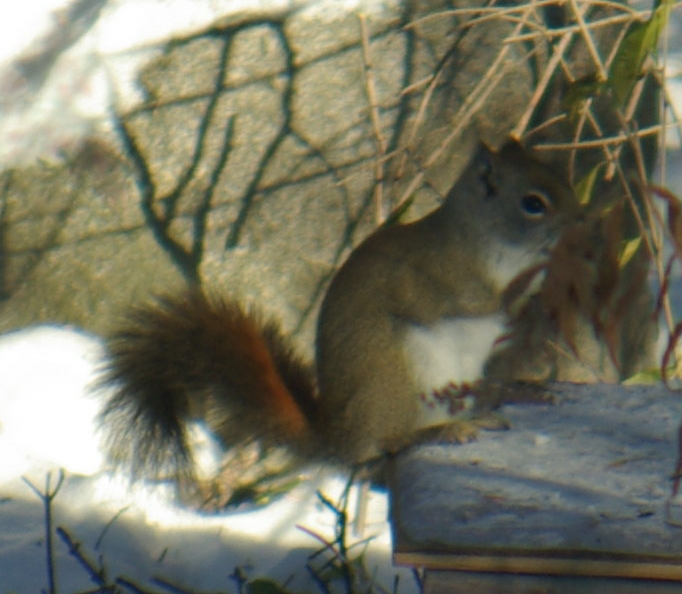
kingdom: Animalia
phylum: Chordata
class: Mammalia
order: Rodentia
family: Sciuridae
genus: Tamiasciurus
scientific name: Tamiasciurus hudsonicus
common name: Red squirrel
